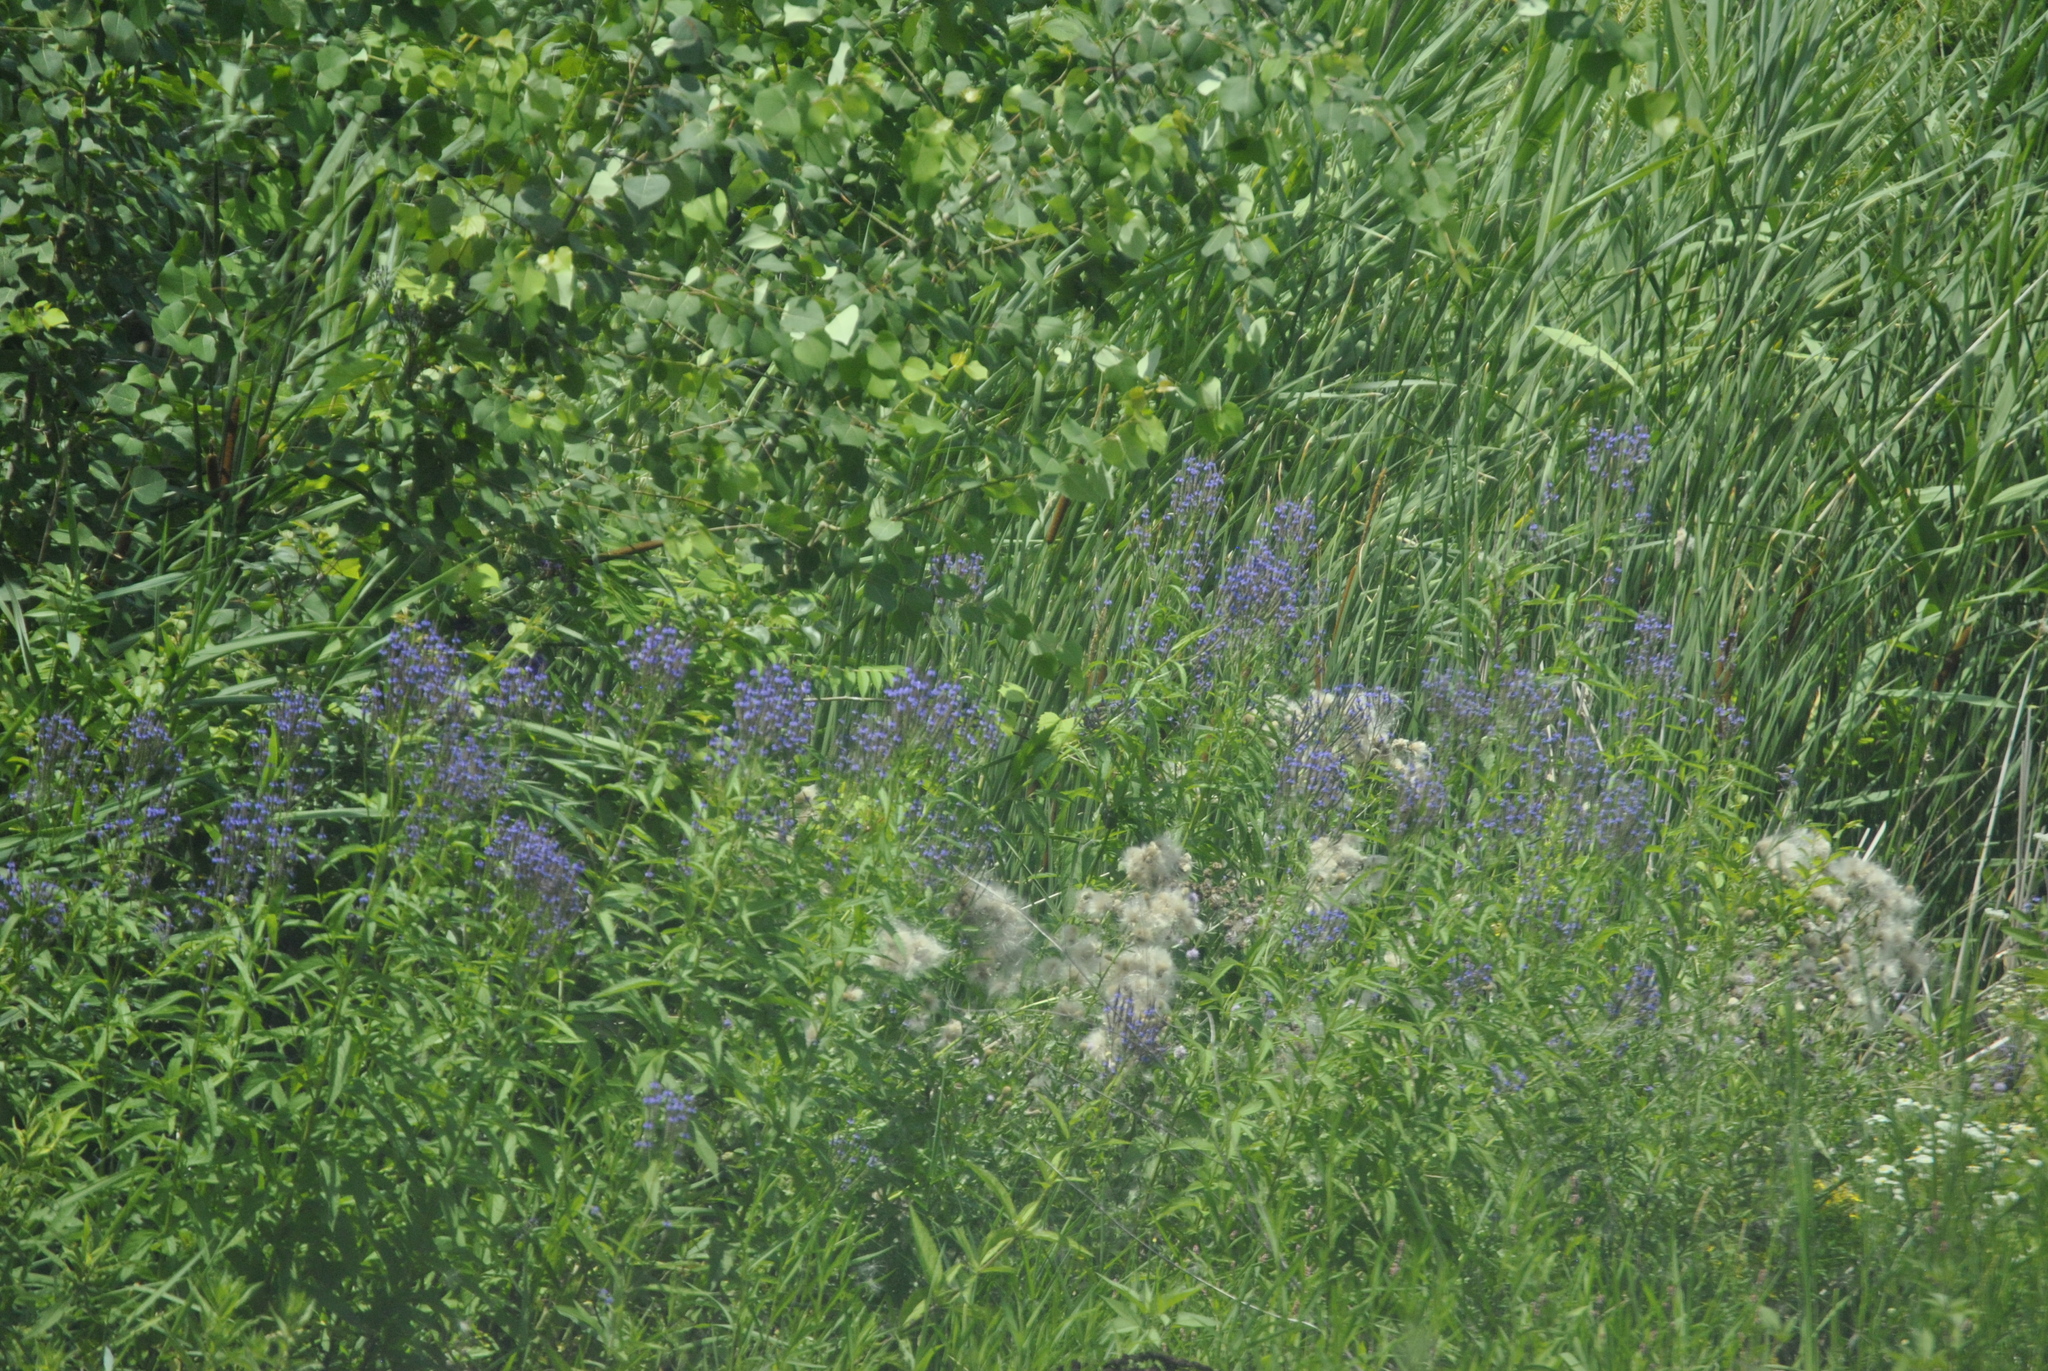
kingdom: Plantae
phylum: Tracheophyta
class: Magnoliopsida
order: Lamiales
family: Verbenaceae
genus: Verbena
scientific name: Verbena hastata
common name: American blue vervain
